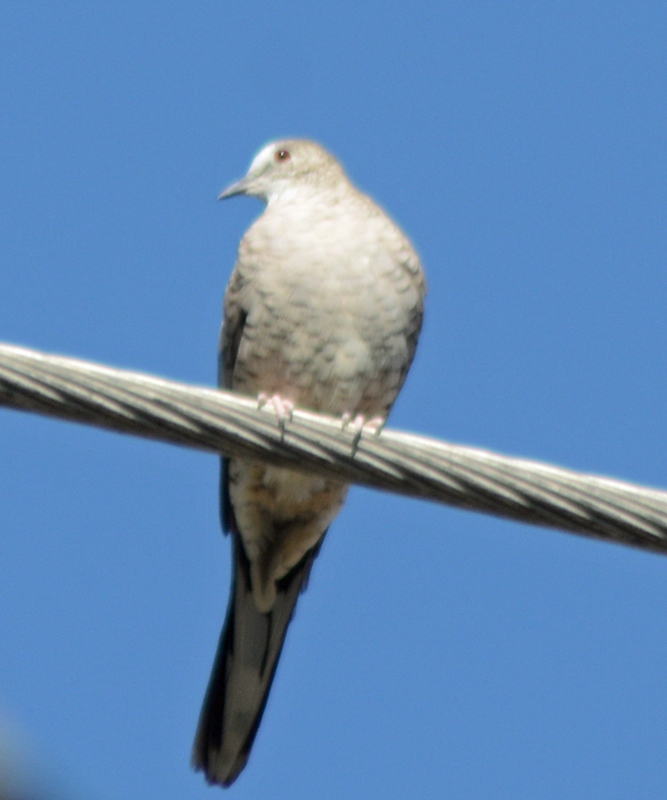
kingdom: Animalia
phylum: Chordata
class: Aves
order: Columbiformes
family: Columbidae
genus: Columbina
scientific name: Columbina inca
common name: Inca dove
